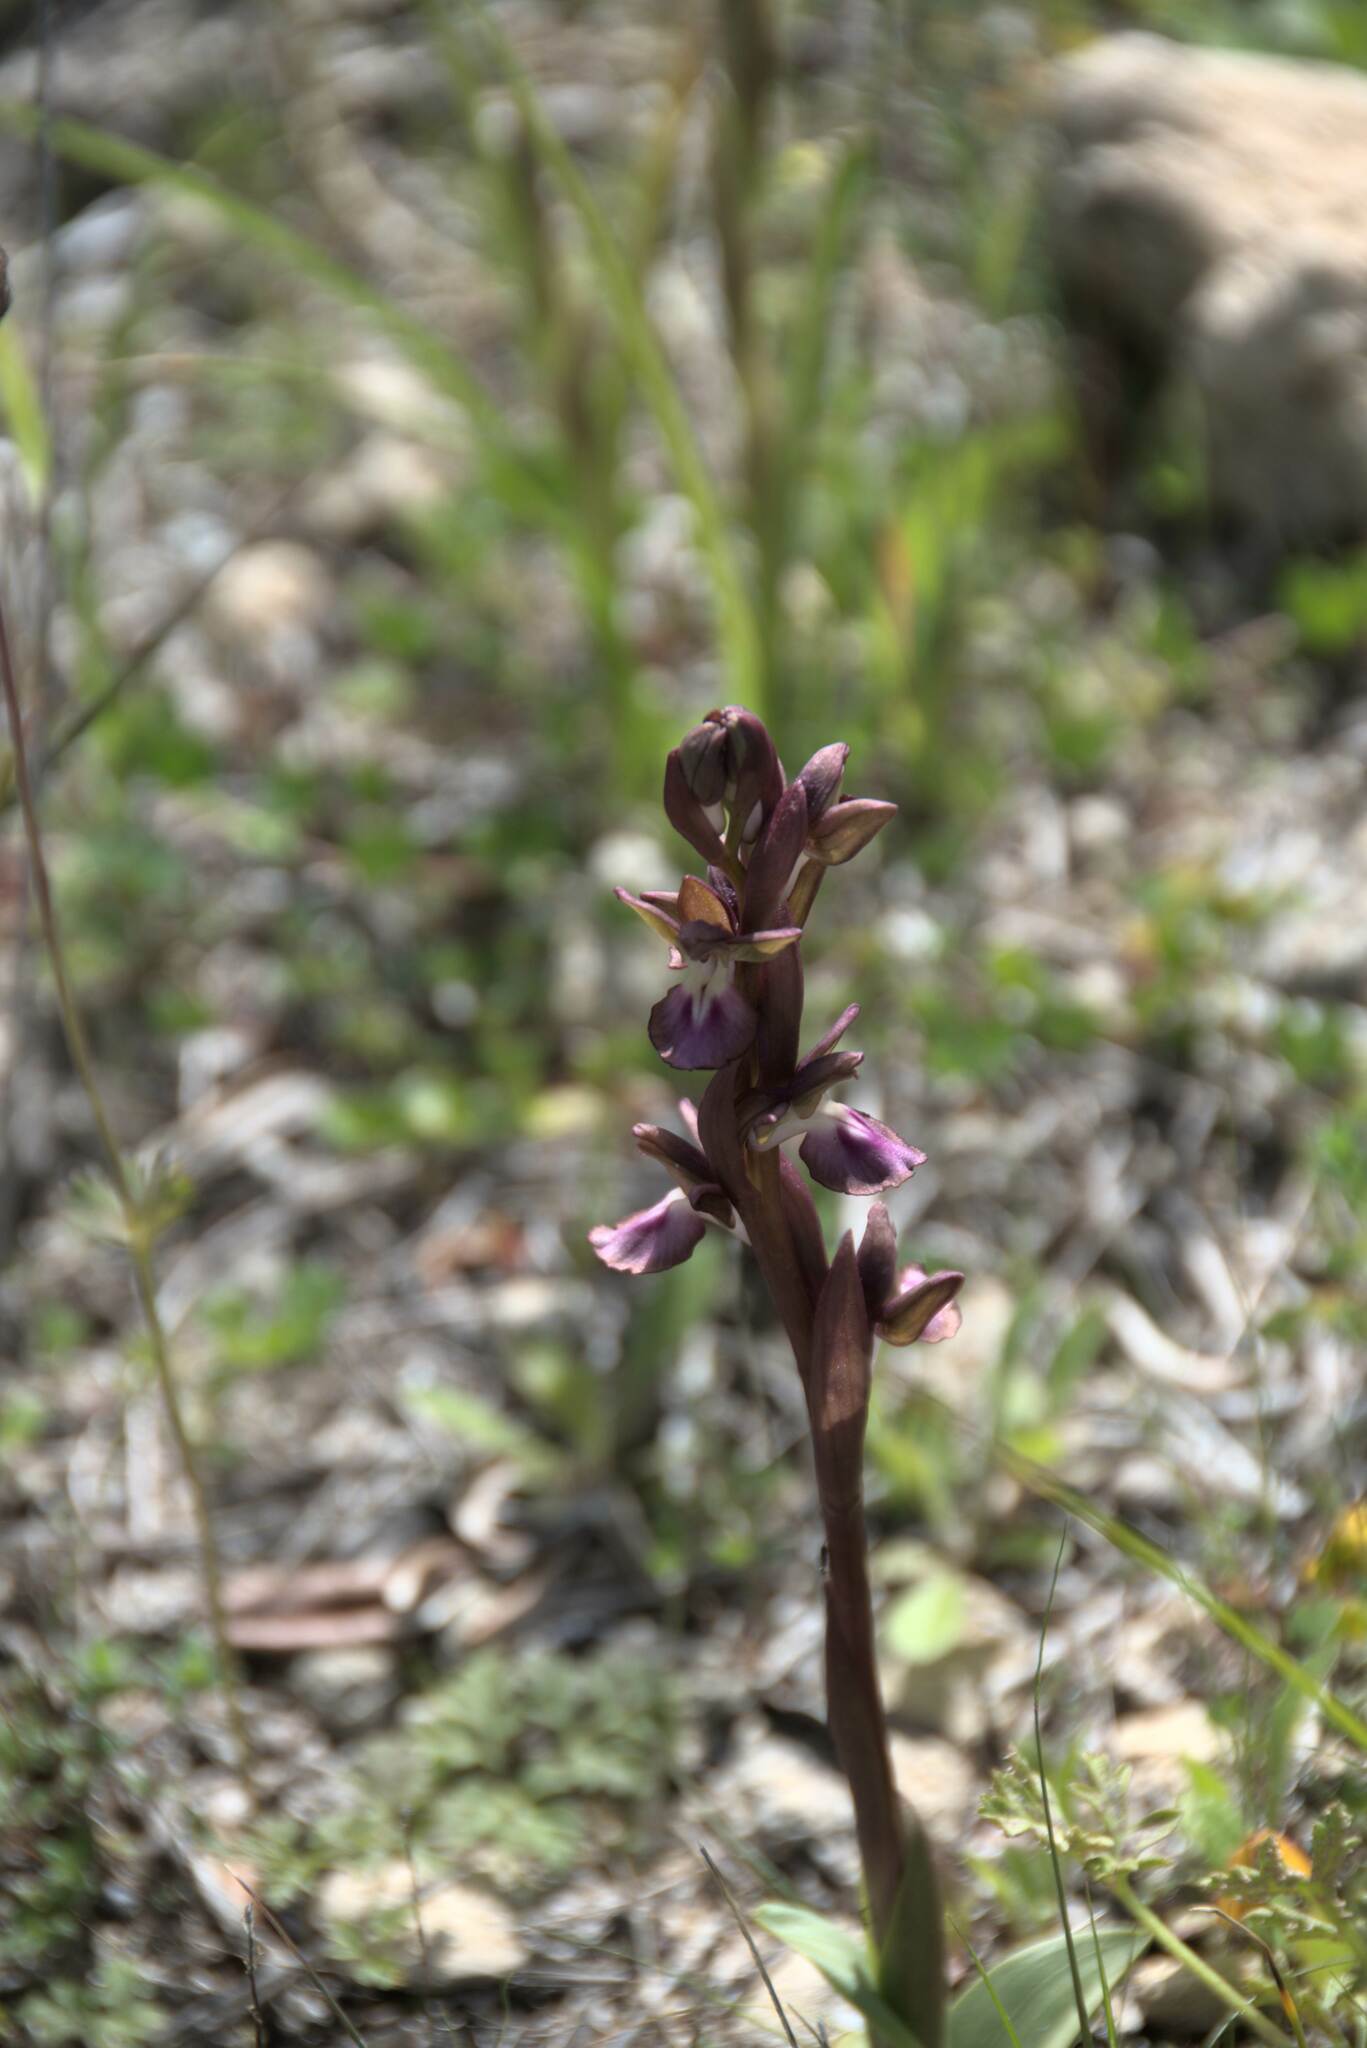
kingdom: Plantae
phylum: Tracheophyta
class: Liliopsida
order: Asparagales
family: Orchidaceae
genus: Anacamptis
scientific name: Anacamptis collina
